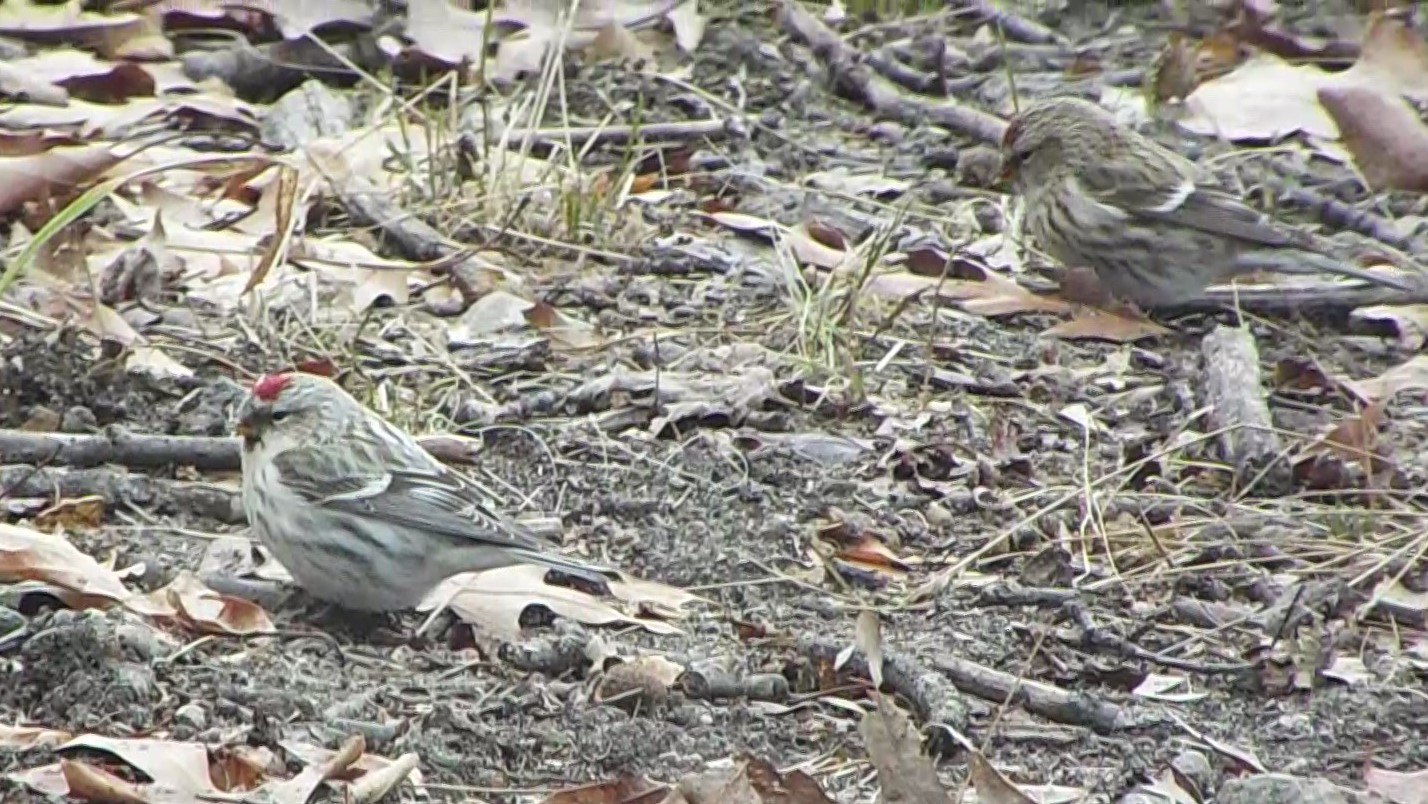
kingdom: Animalia
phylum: Chordata
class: Aves
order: Passeriformes
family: Fringillidae
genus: Acanthis
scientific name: Acanthis hornemanni
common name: Arctic redpoll
